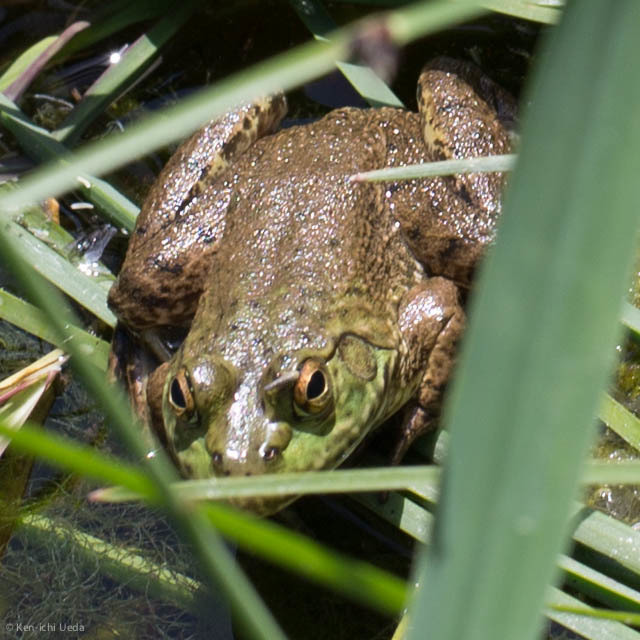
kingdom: Animalia
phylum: Chordata
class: Amphibia
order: Anura
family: Ranidae
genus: Lithobates
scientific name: Lithobates catesbeianus
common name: American bullfrog
